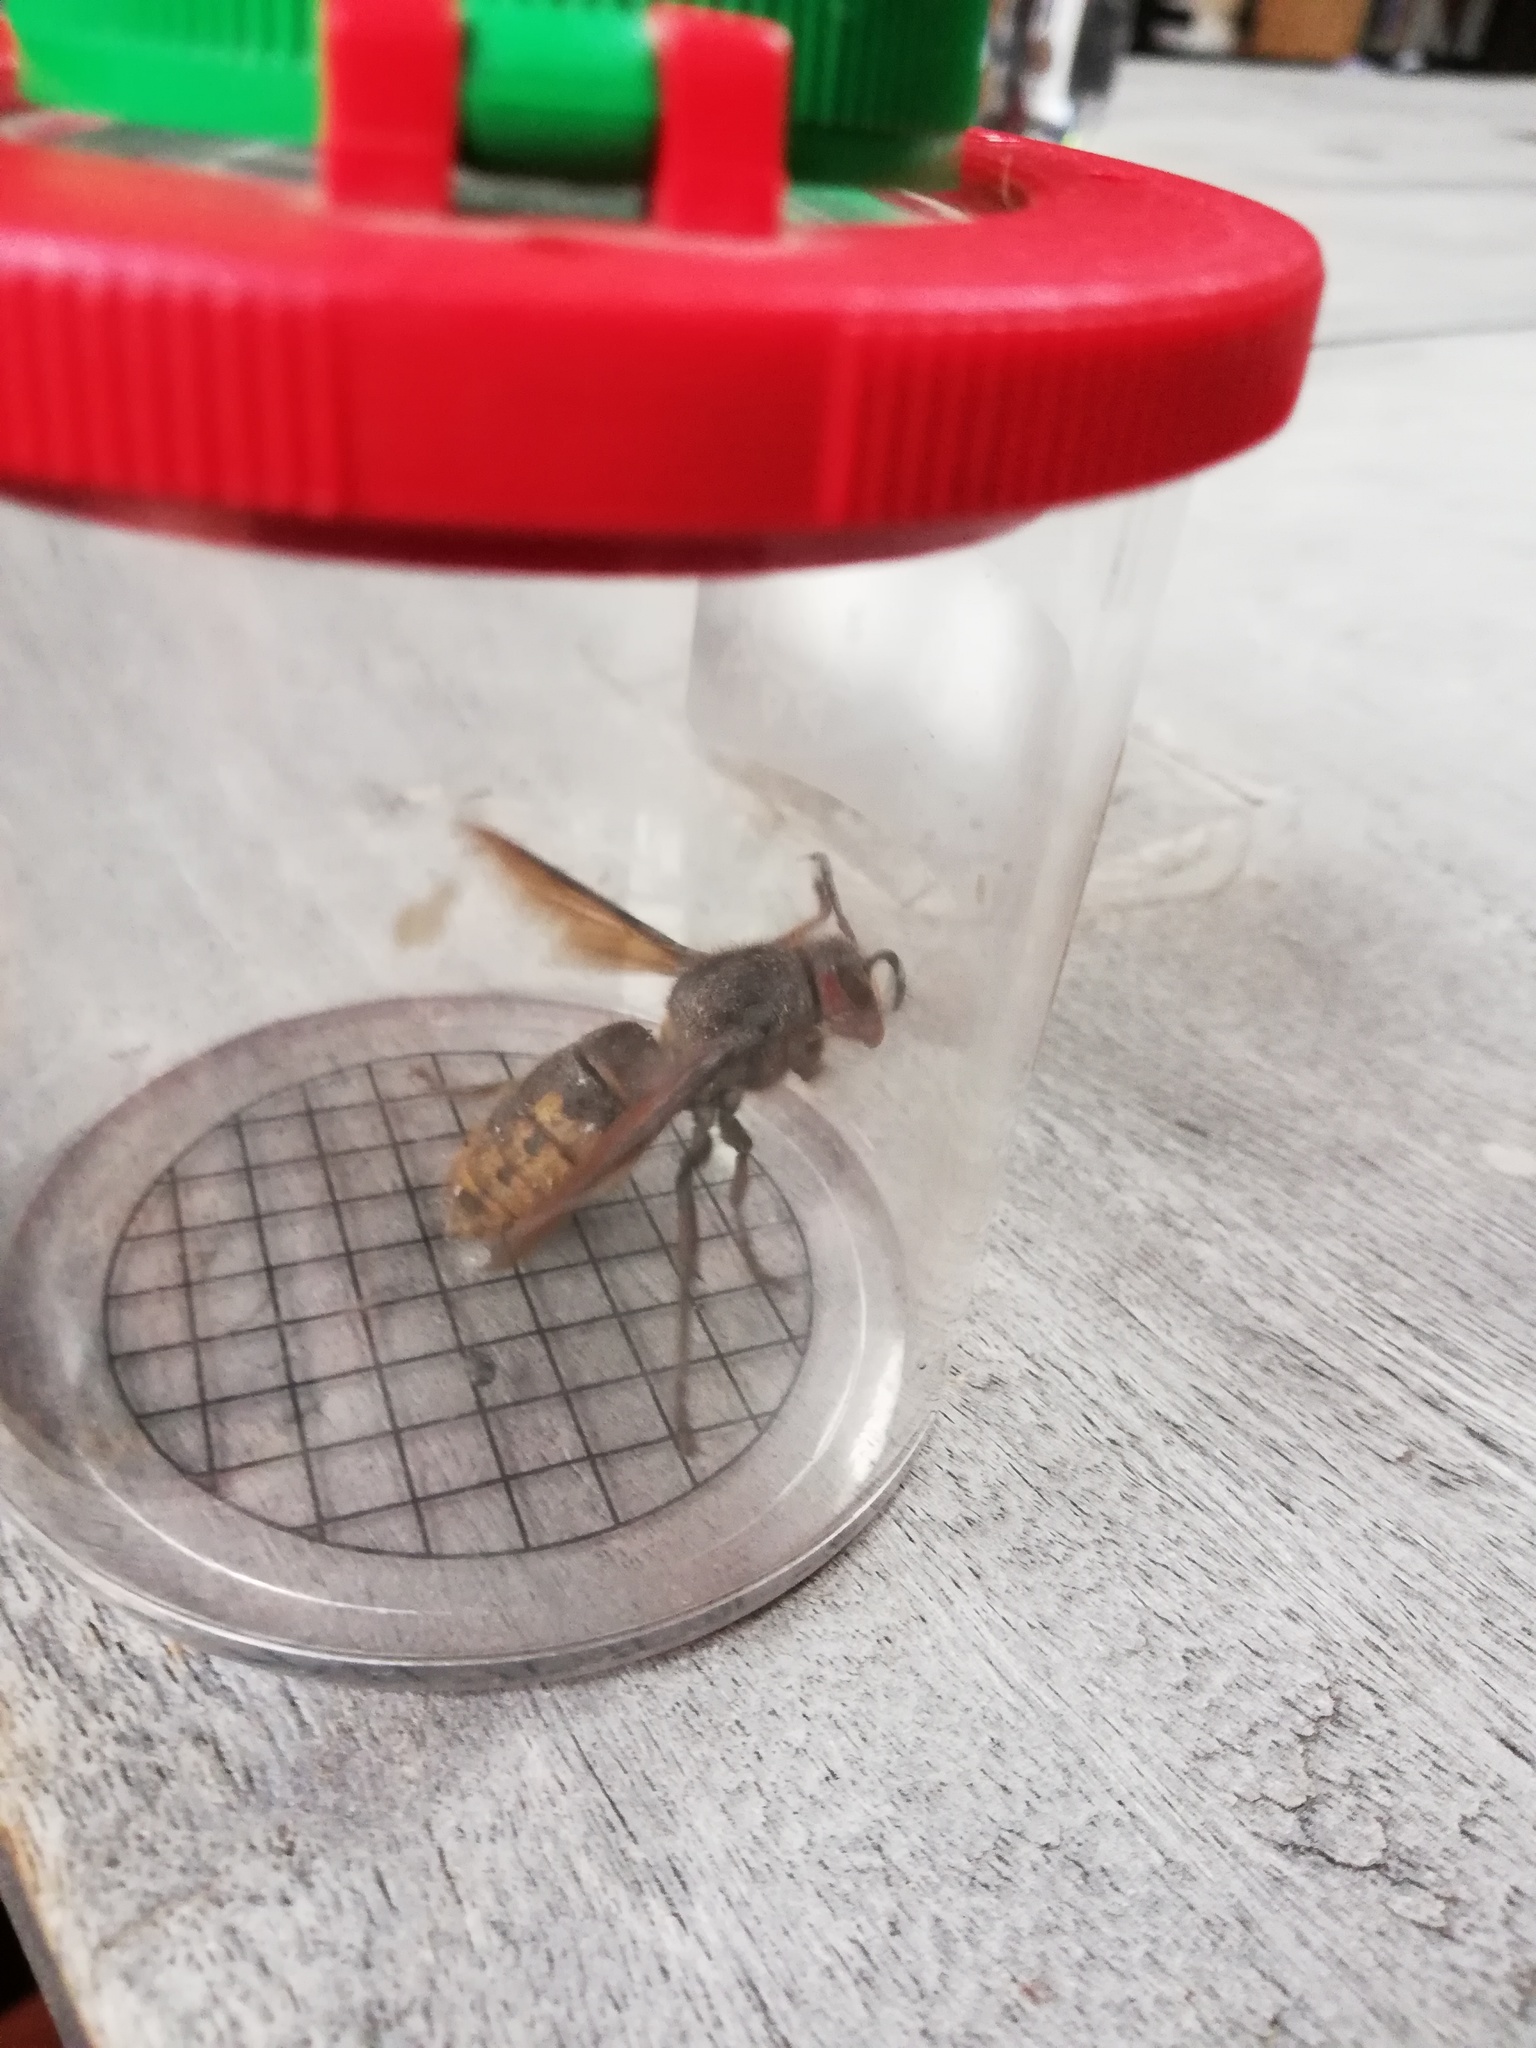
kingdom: Animalia
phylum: Arthropoda
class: Insecta
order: Hymenoptera
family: Vespidae
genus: Vespa
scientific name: Vespa crabro
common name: Hornet
